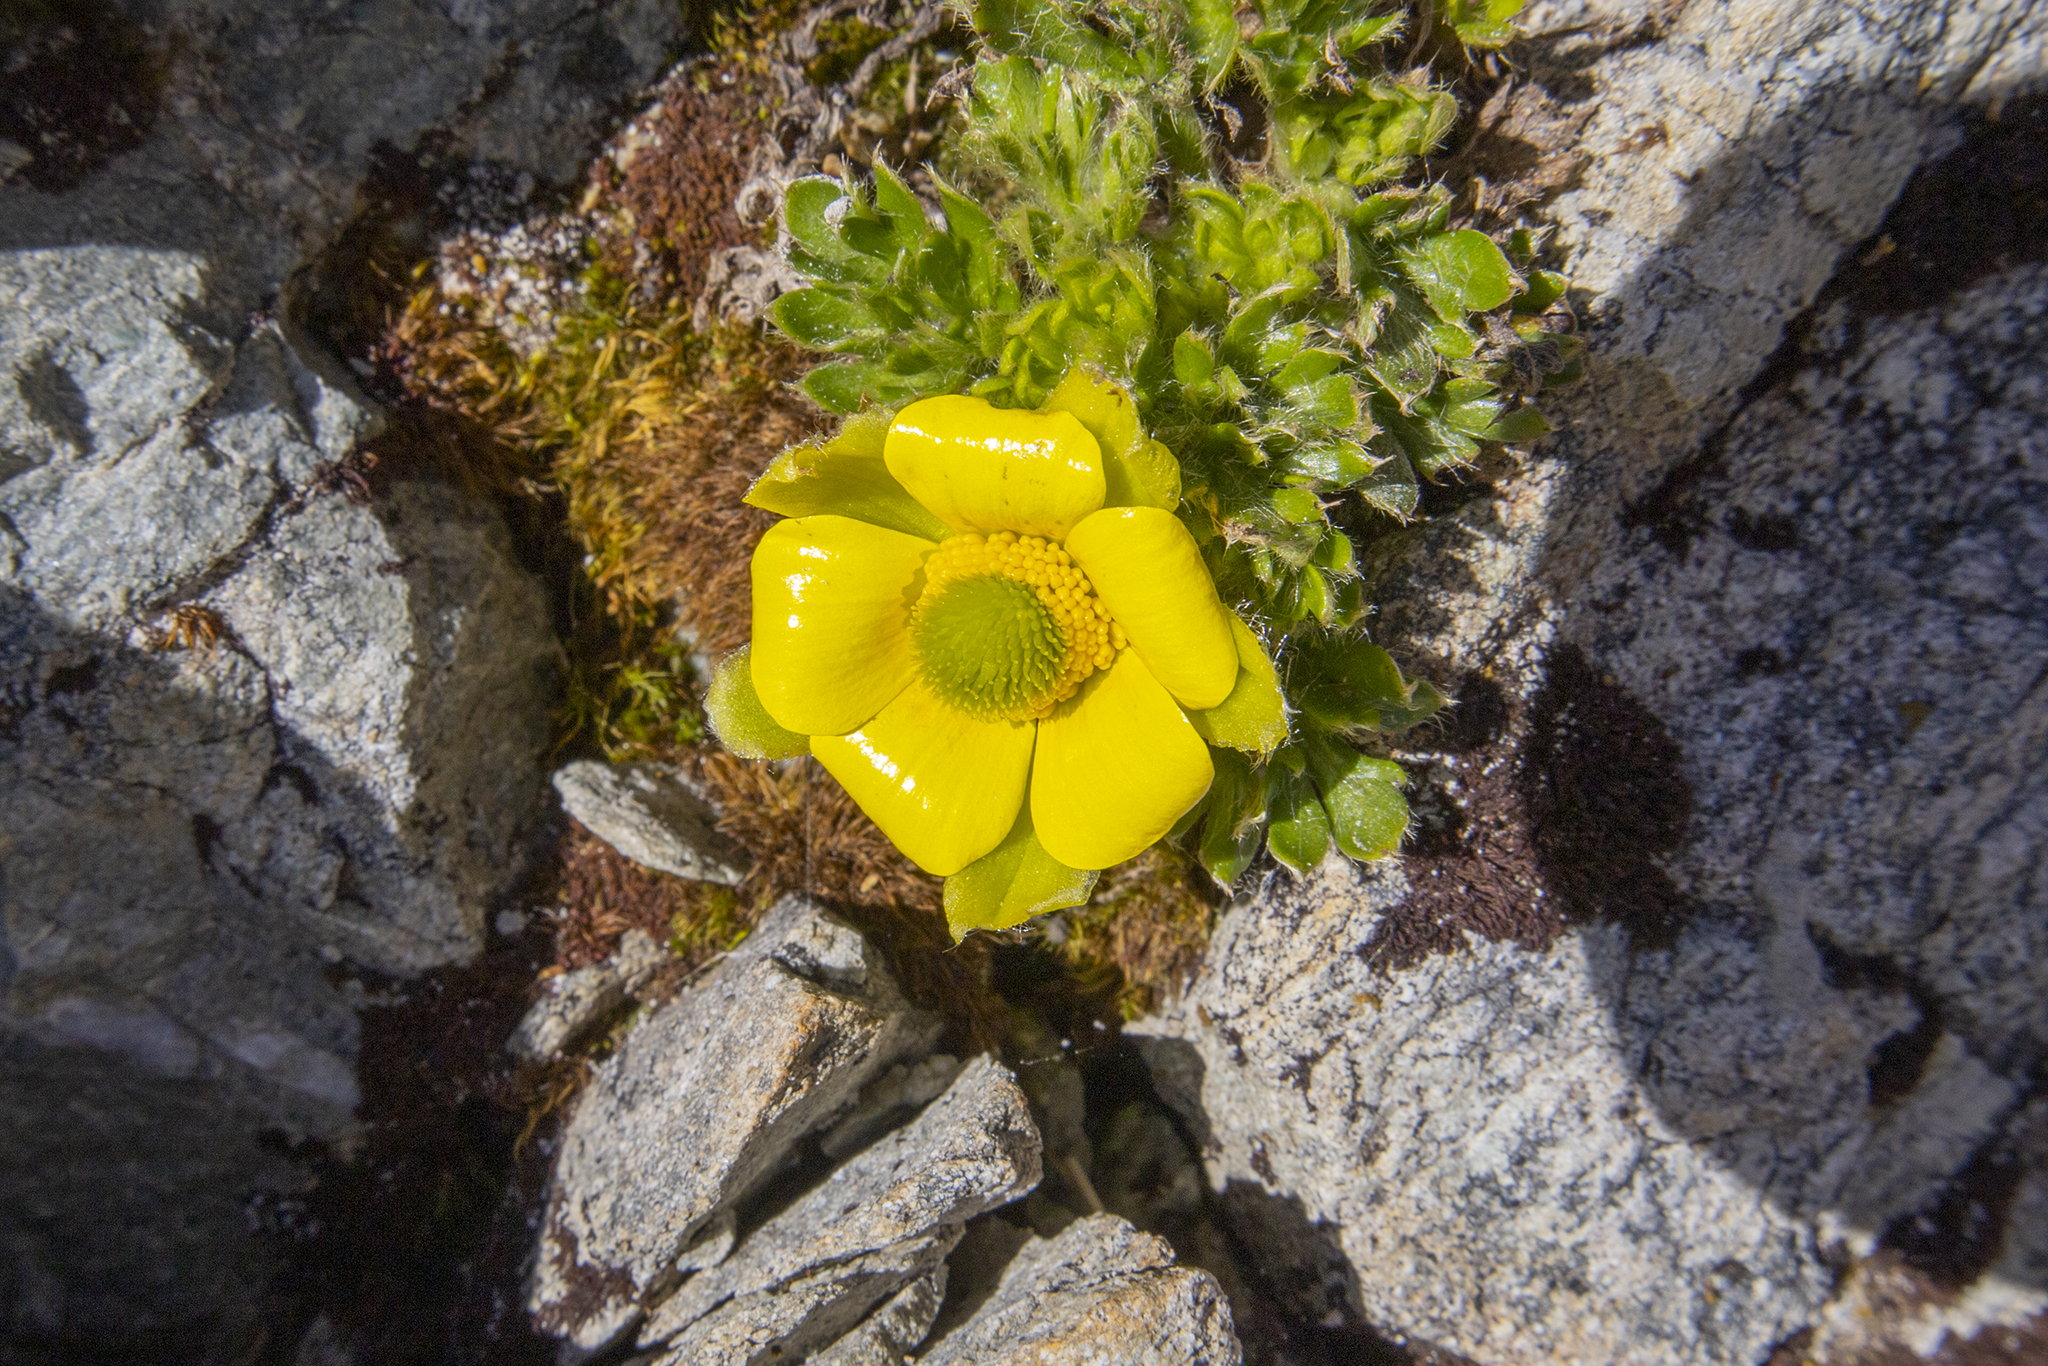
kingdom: Plantae
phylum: Tracheophyta
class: Magnoliopsida
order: Ranunculales
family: Ranunculaceae
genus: Ranunculus
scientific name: Ranunculus sericophyllus
